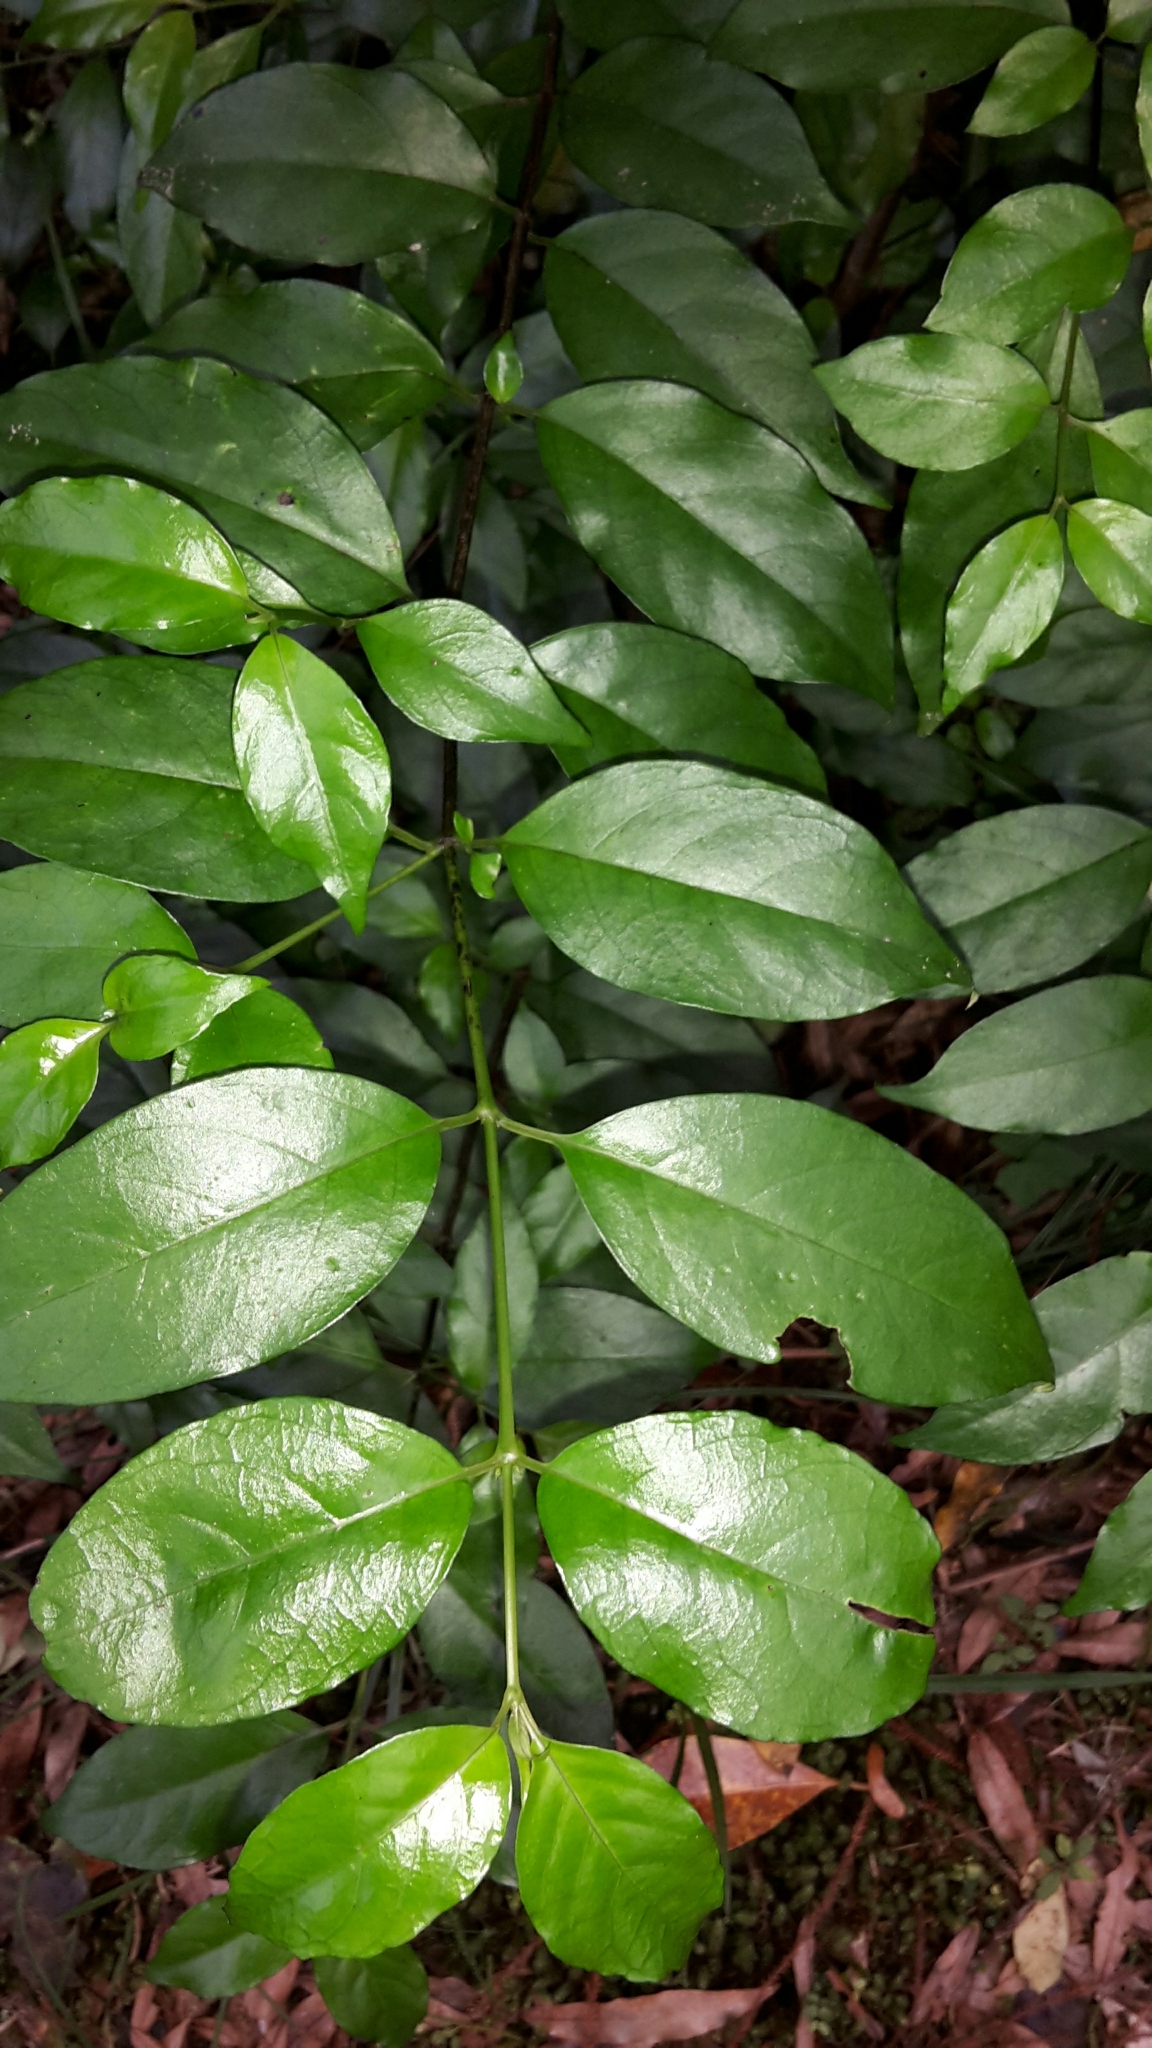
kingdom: Plantae
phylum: Tracheophyta
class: Magnoliopsida
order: Gentianales
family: Loganiaceae
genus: Geniostoma
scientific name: Geniostoma ligustrifolium
